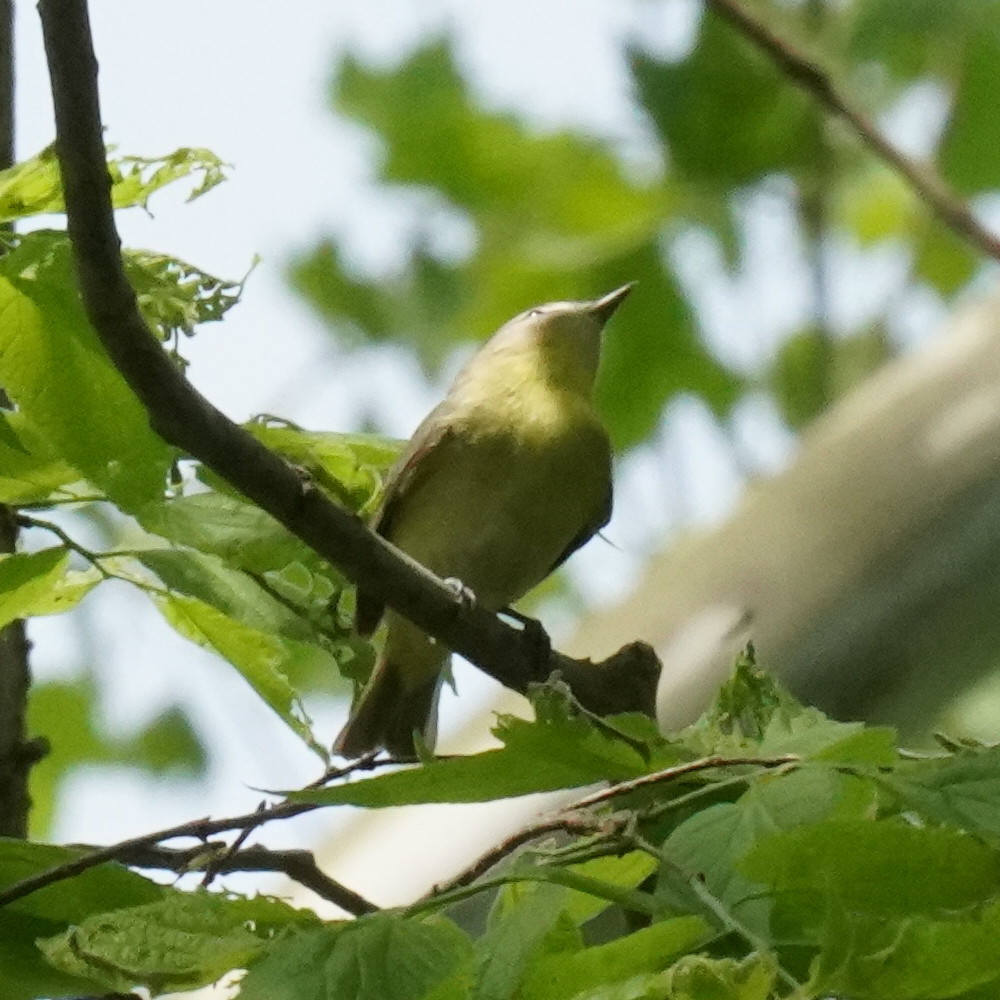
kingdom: Animalia
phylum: Chordata
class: Aves
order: Passeriformes
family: Vireonidae
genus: Vireo
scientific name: Vireo philadelphicus
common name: Philadelphia vireo
